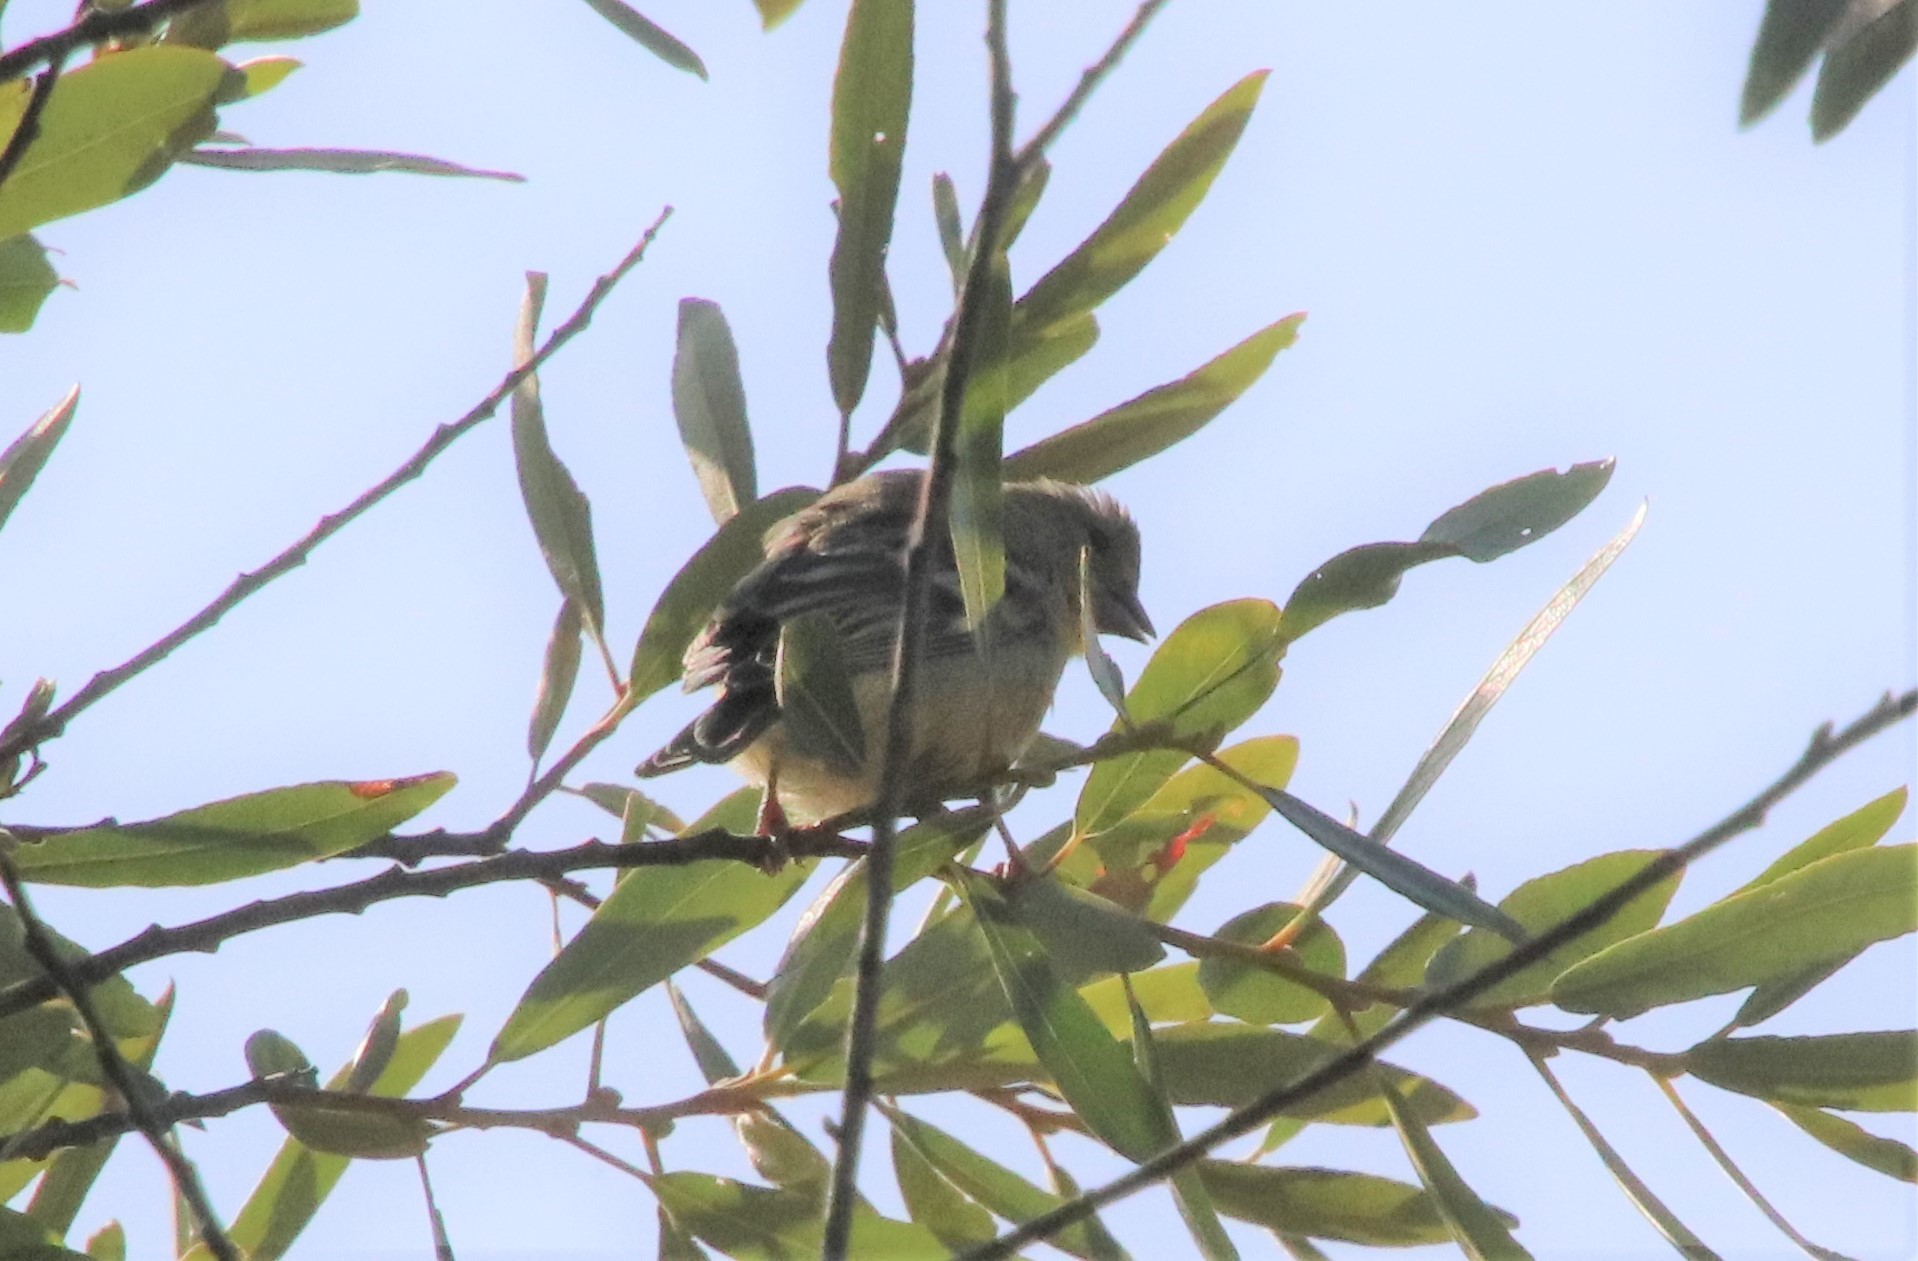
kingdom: Animalia
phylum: Chordata
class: Aves
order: Passeriformes
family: Fringillidae
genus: Spinus
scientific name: Spinus psaltria
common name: Lesser goldfinch
